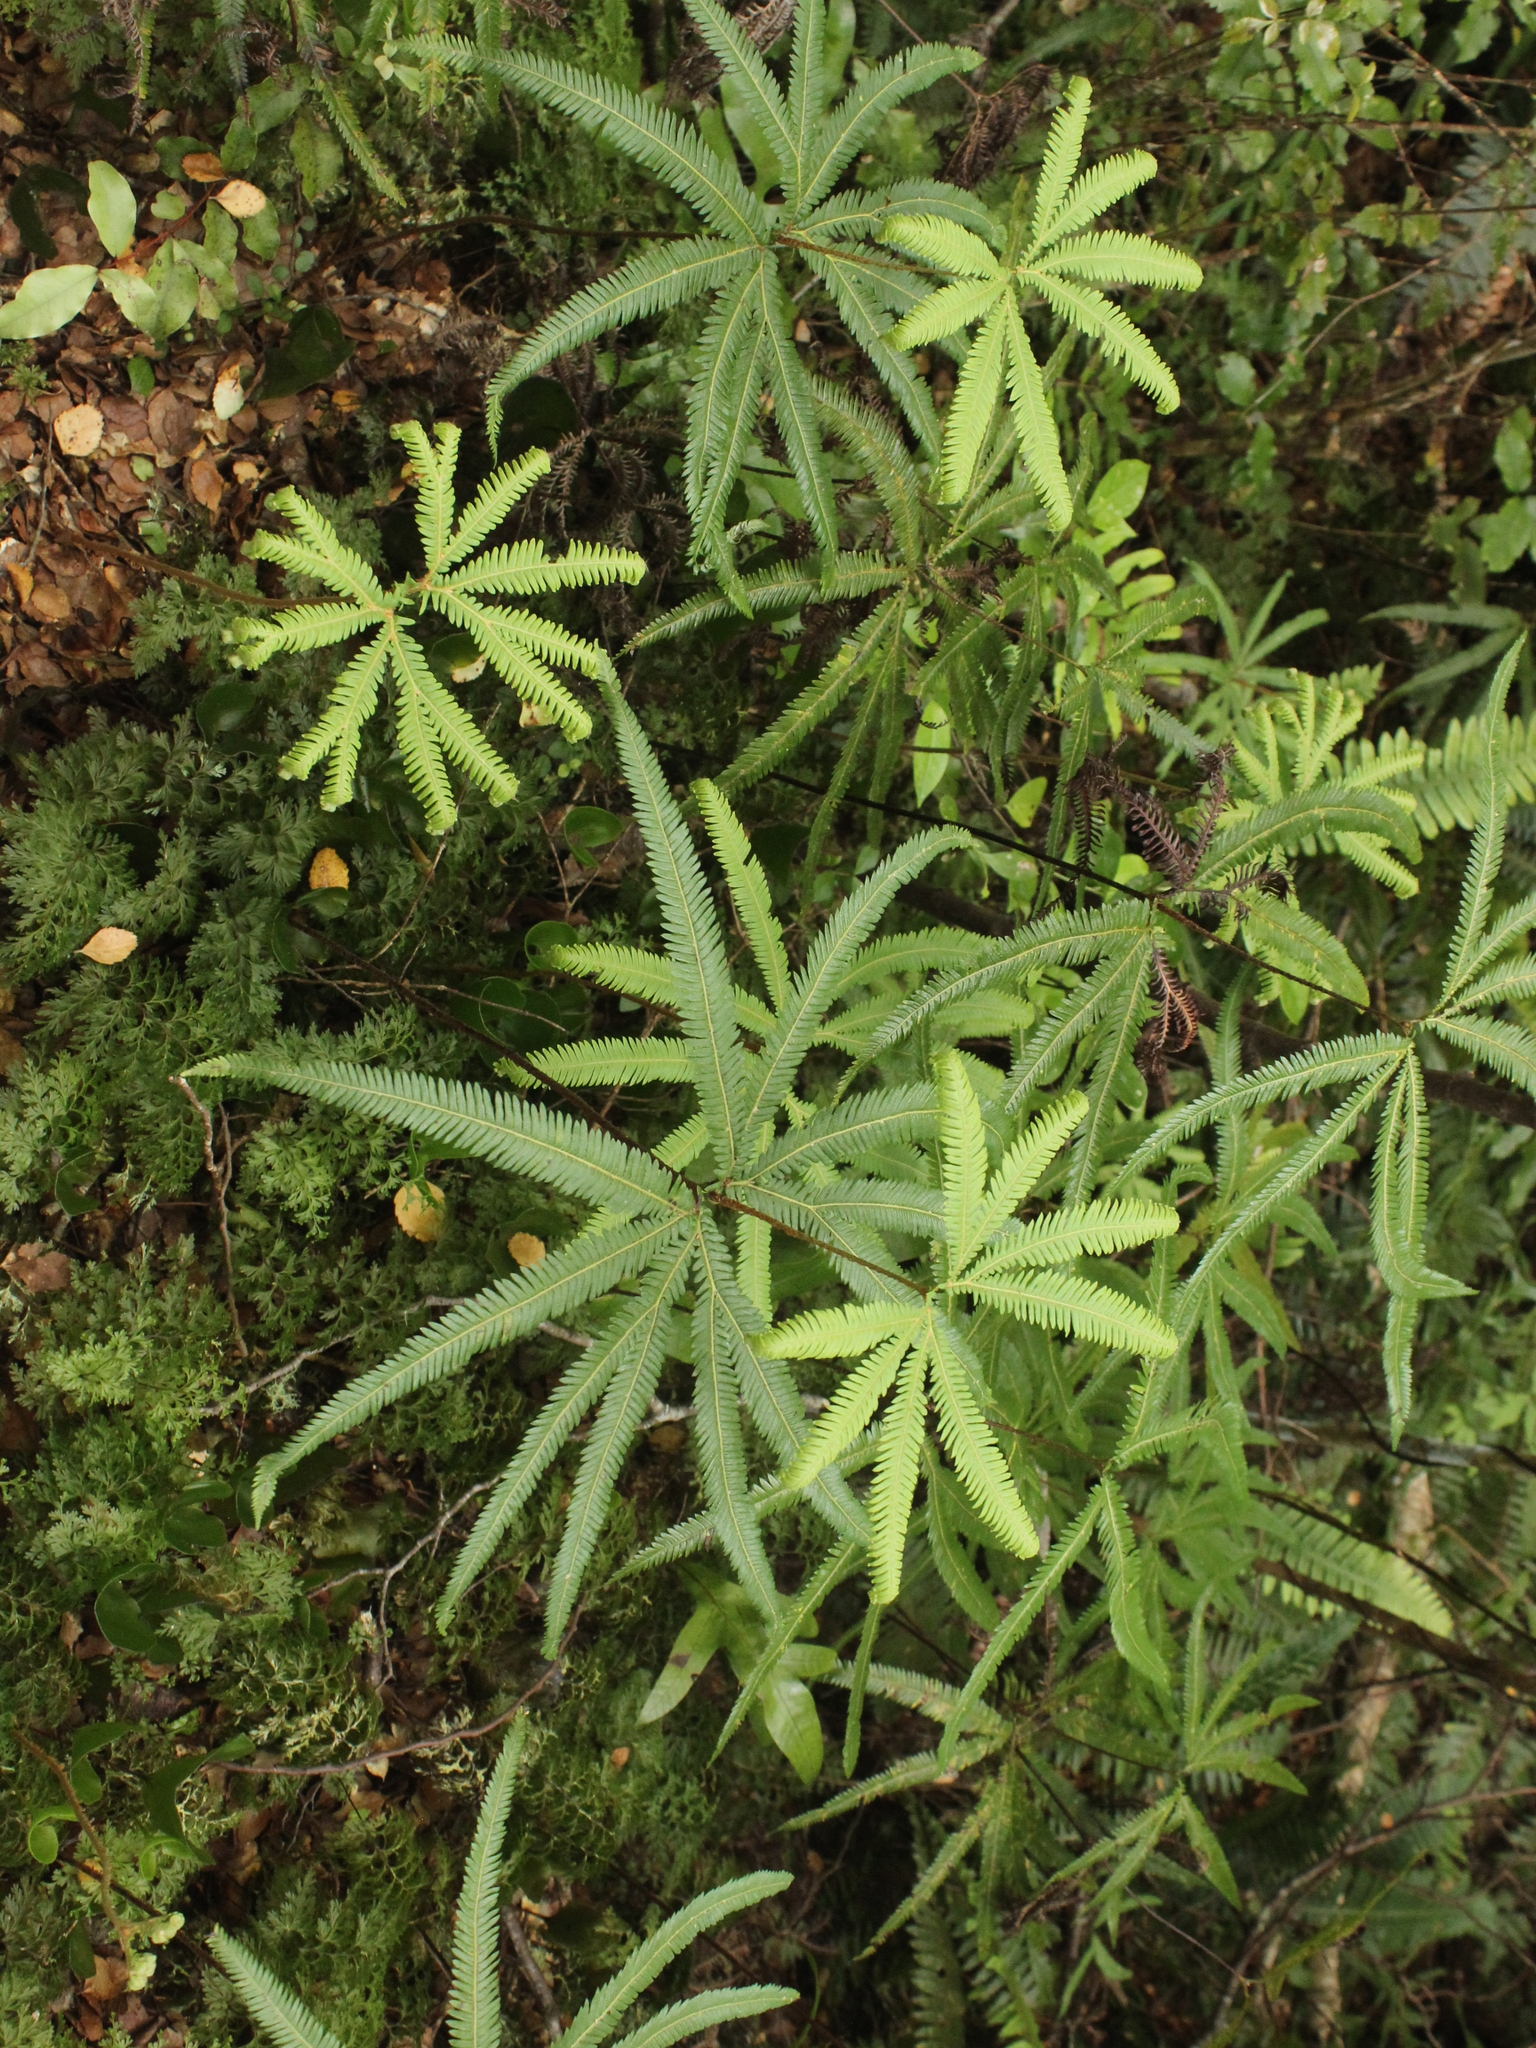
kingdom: Plantae
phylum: Tracheophyta
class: Polypodiopsida
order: Gleicheniales
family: Gleicheniaceae
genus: Sticherus
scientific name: Sticherus cunninghamii
